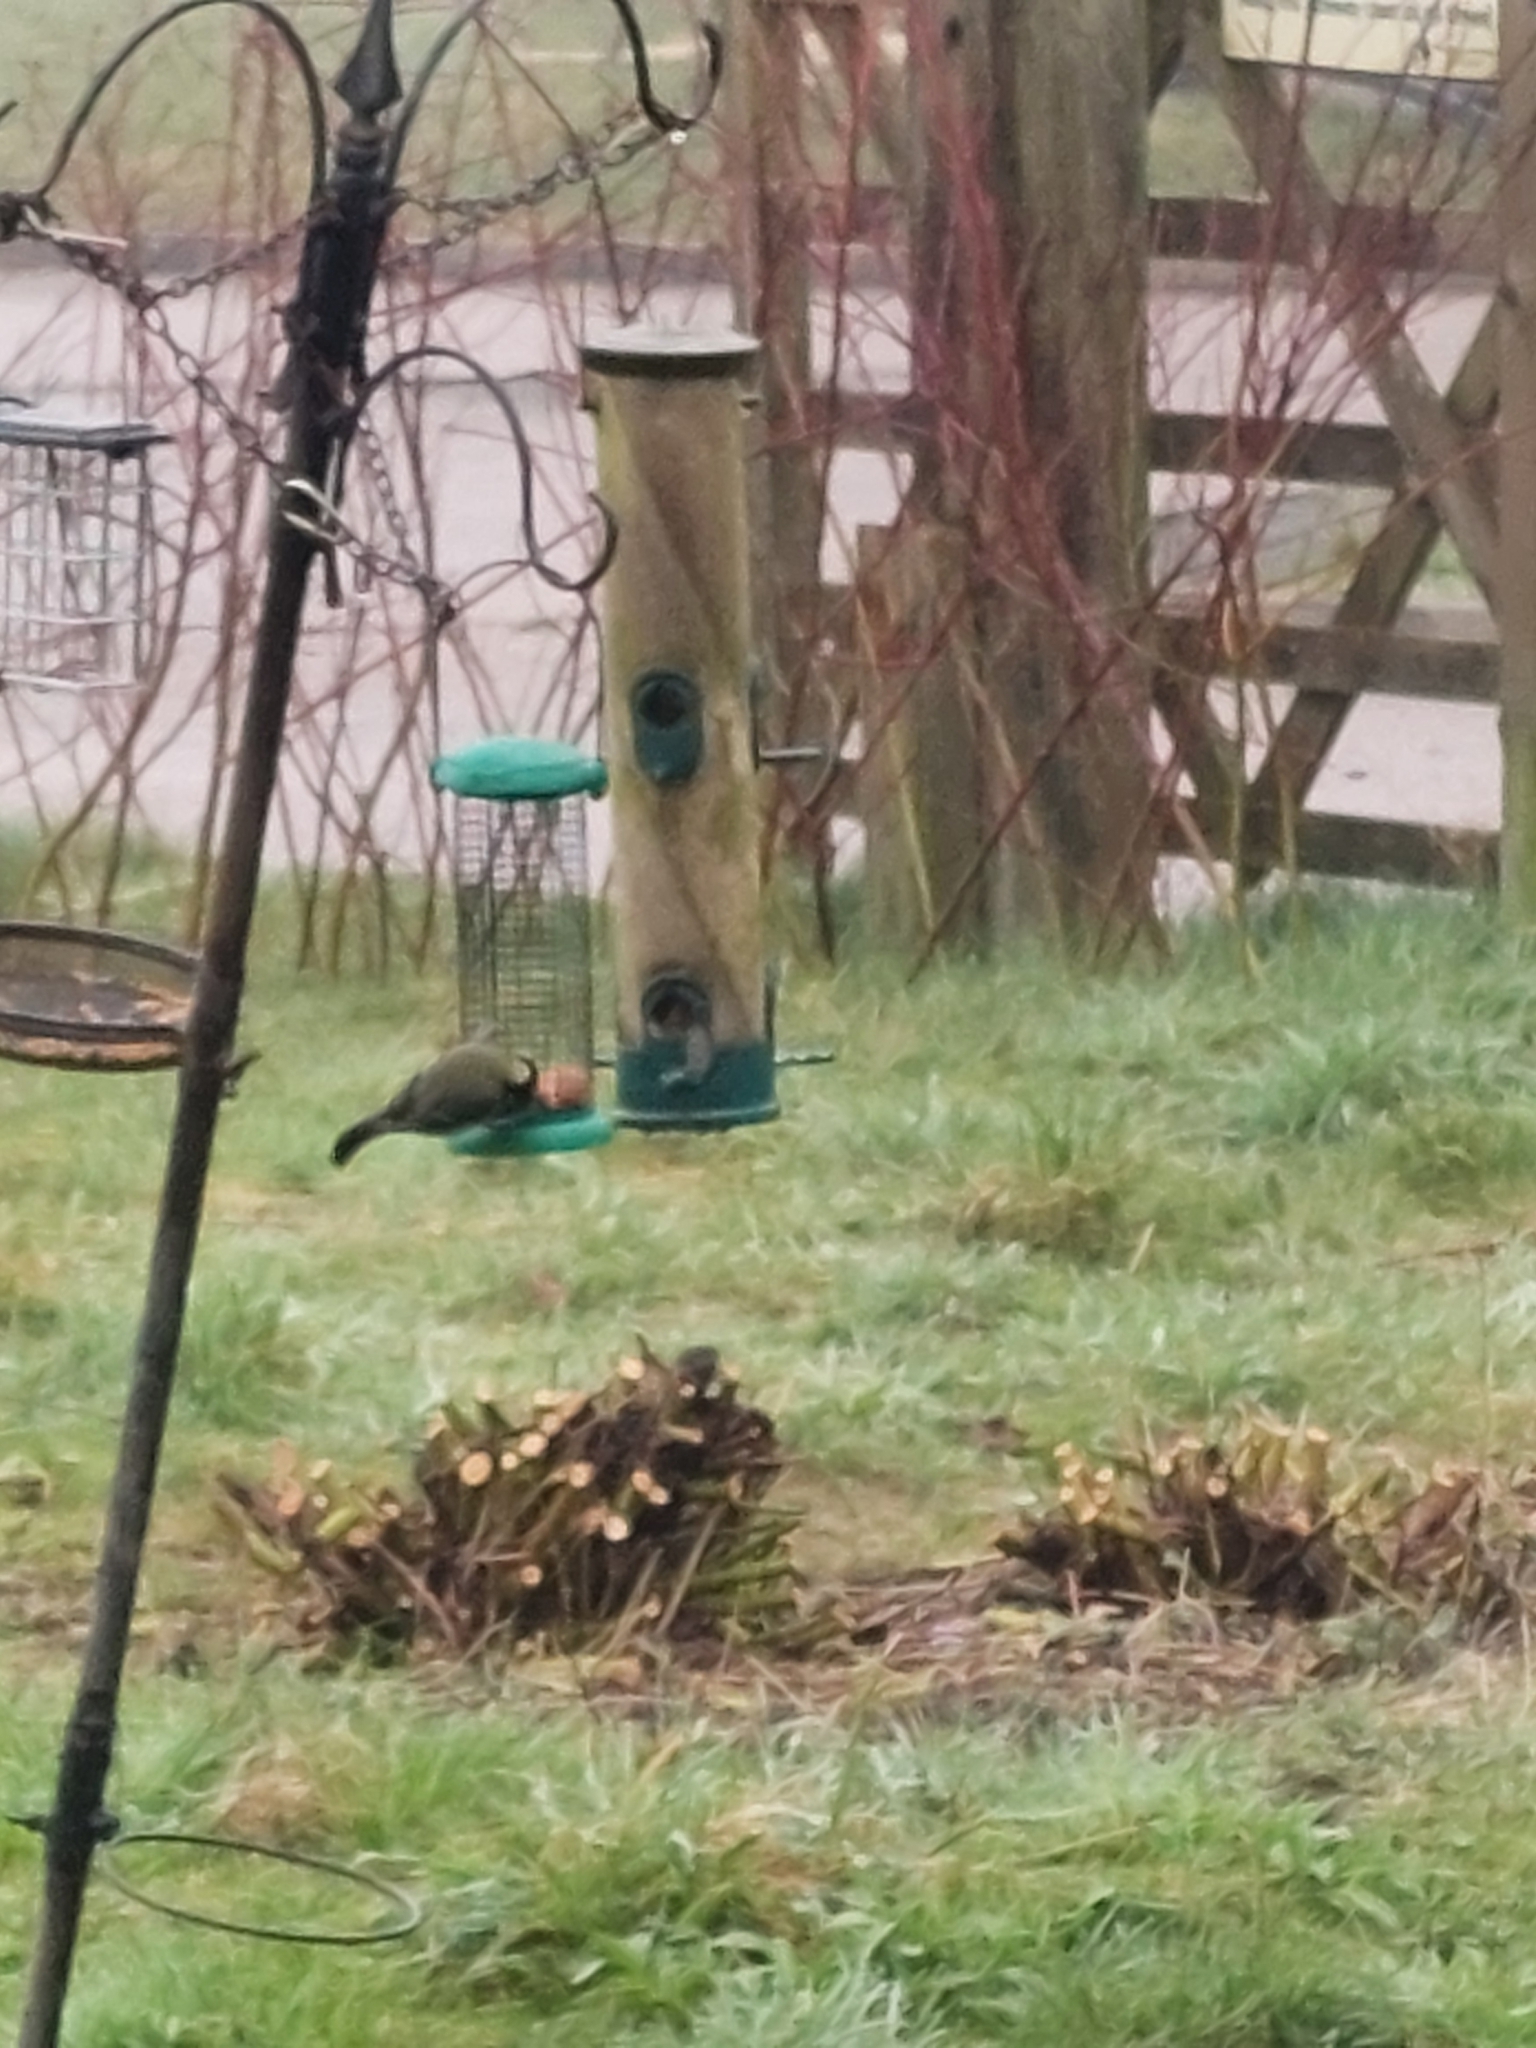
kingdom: Animalia
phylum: Chordata
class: Aves
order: Passeriformes
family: Paridae
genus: Parus
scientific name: Parus major
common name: Great tit
